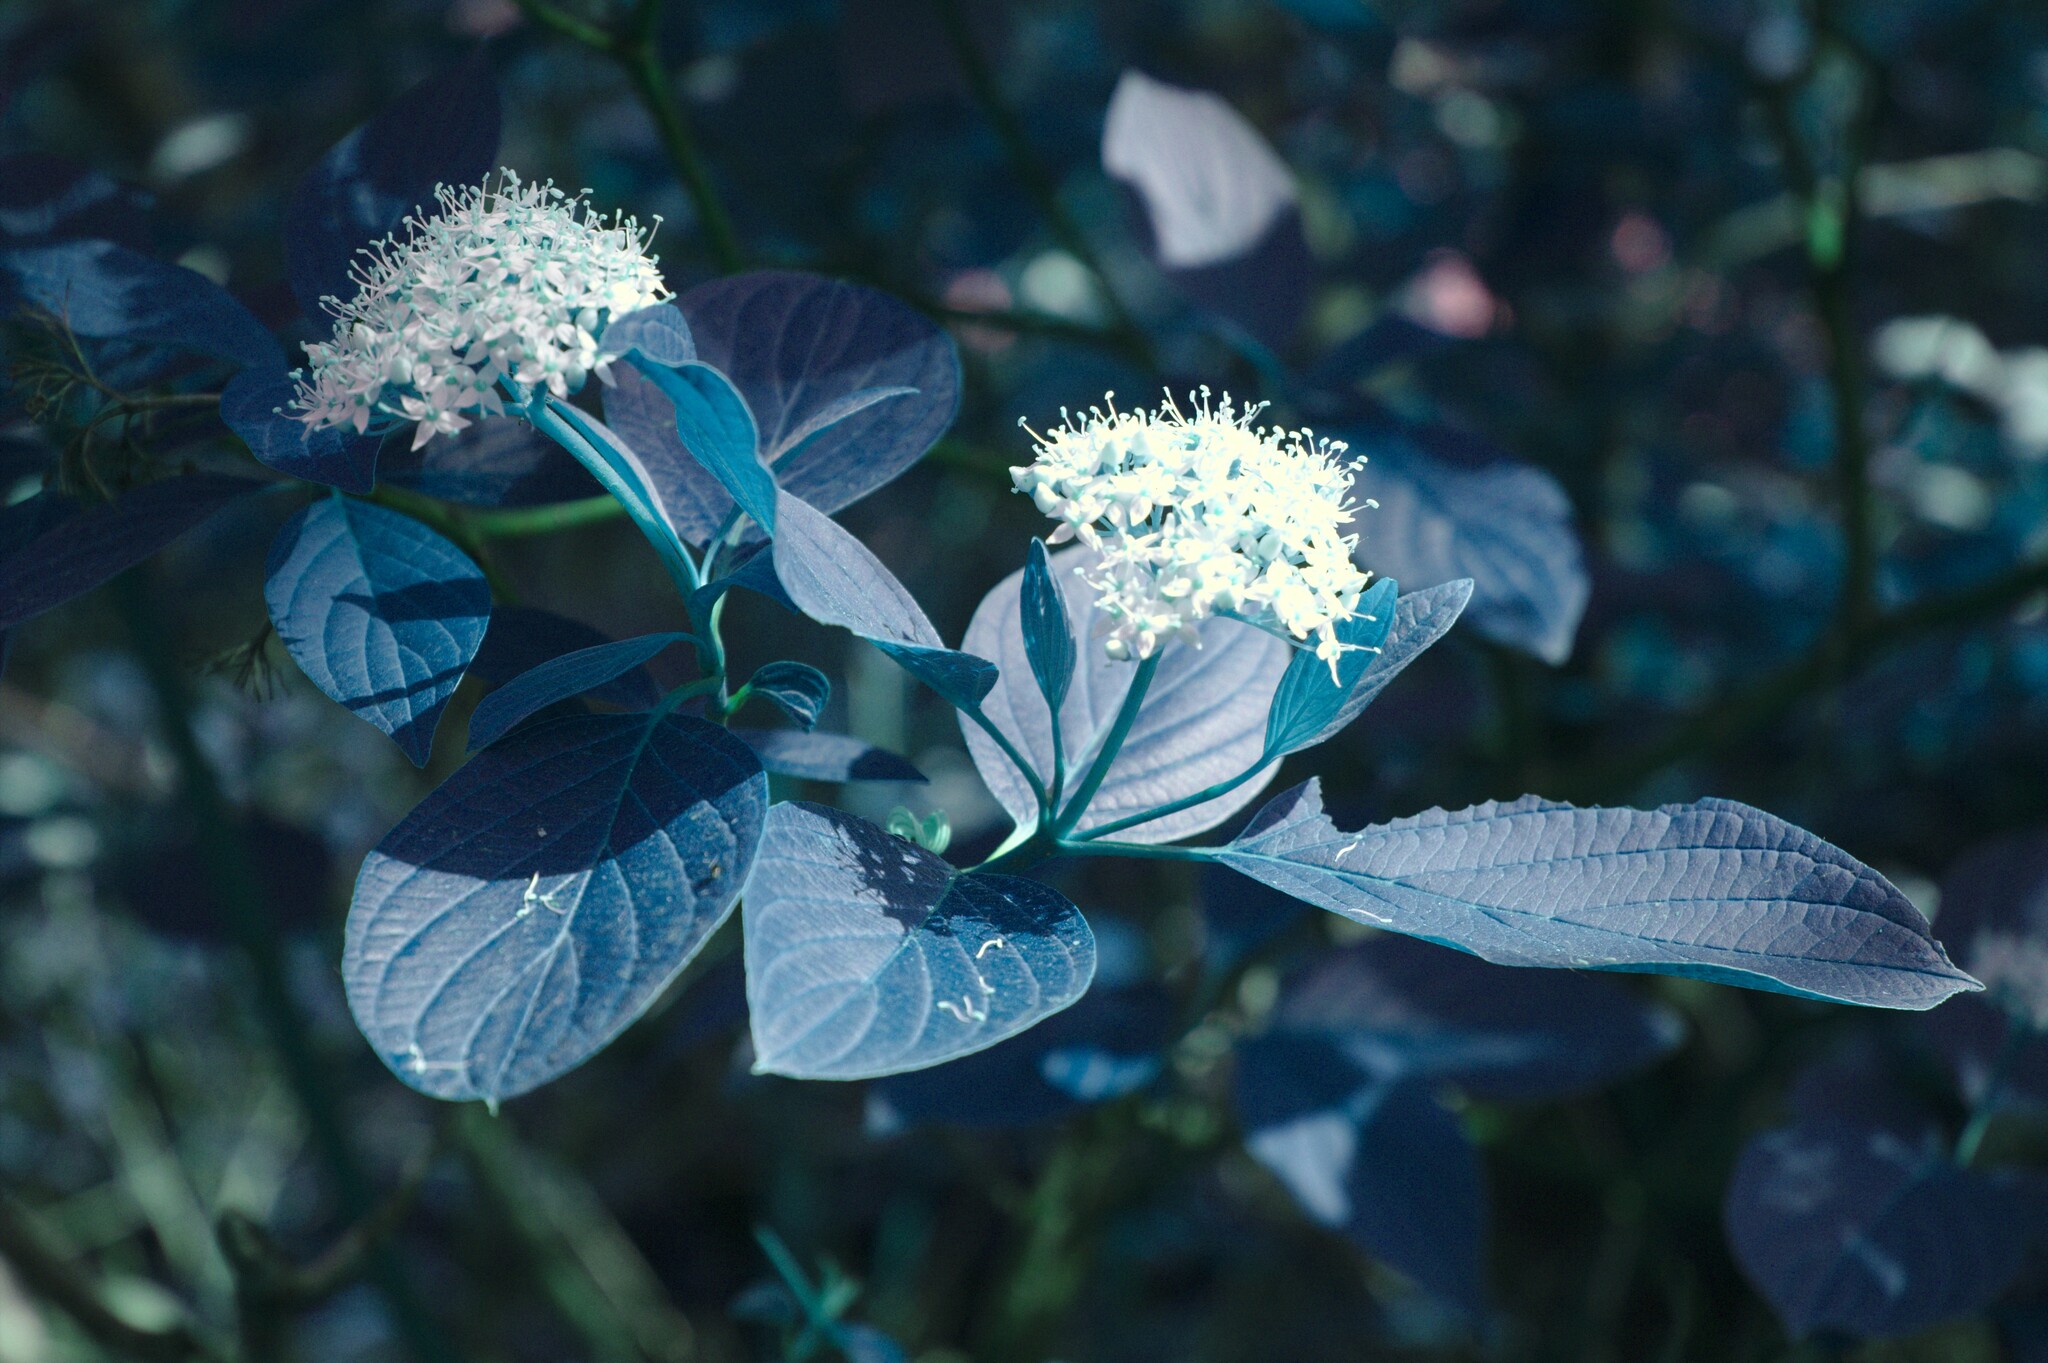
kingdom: Plantae
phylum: Tracheophyta
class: Magnoliopsida
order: Cornales
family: Cornaceae
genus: Cornus
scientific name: Cornus sericea
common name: Red-osier dogwood
